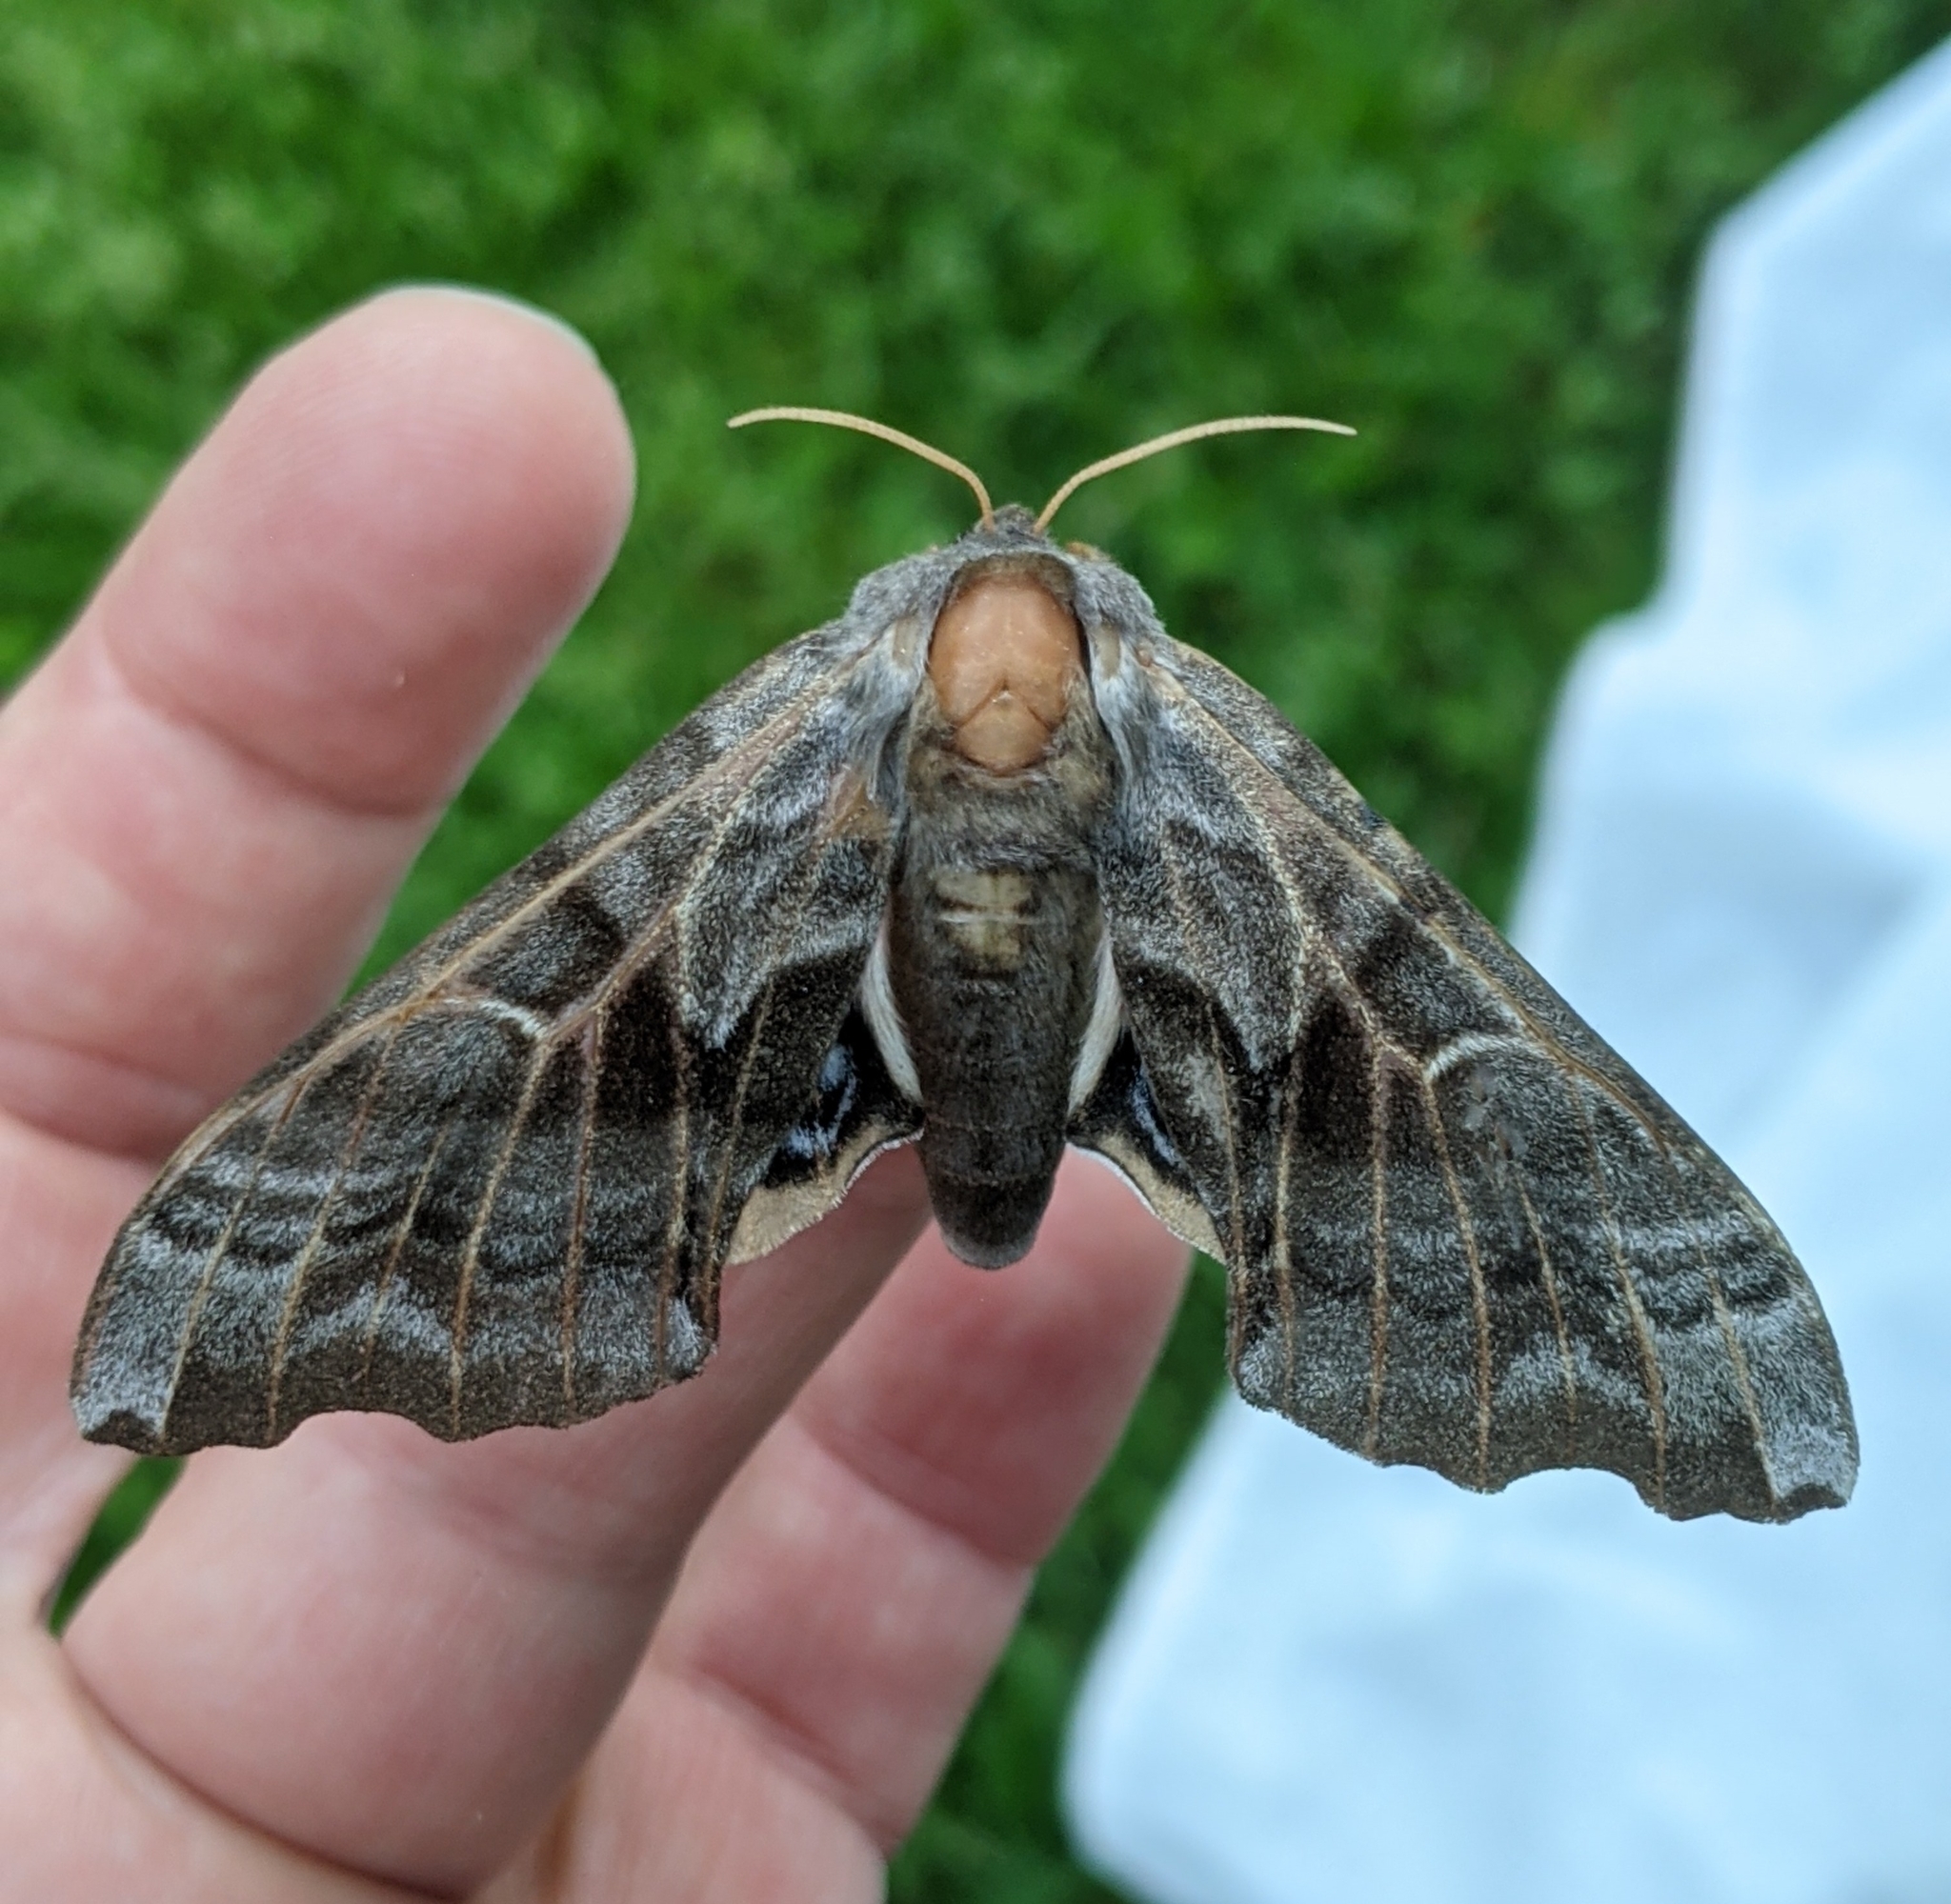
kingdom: Animalia
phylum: Arthropoda
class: Insecta
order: Lepidoptera
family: Sphingidae
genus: Smerinthus
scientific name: Smerinthus cerisyi
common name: Cerisy's sphinx moth
